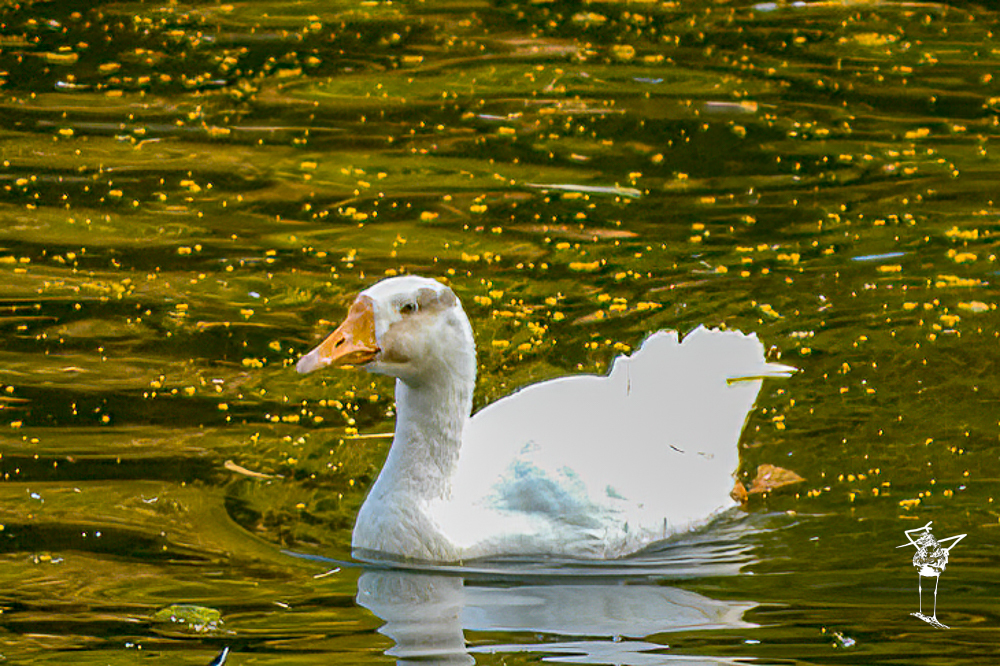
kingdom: Animalia
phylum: Chordata
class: Aves
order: Anseriformes
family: Anatidae
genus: Anser
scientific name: Anser
